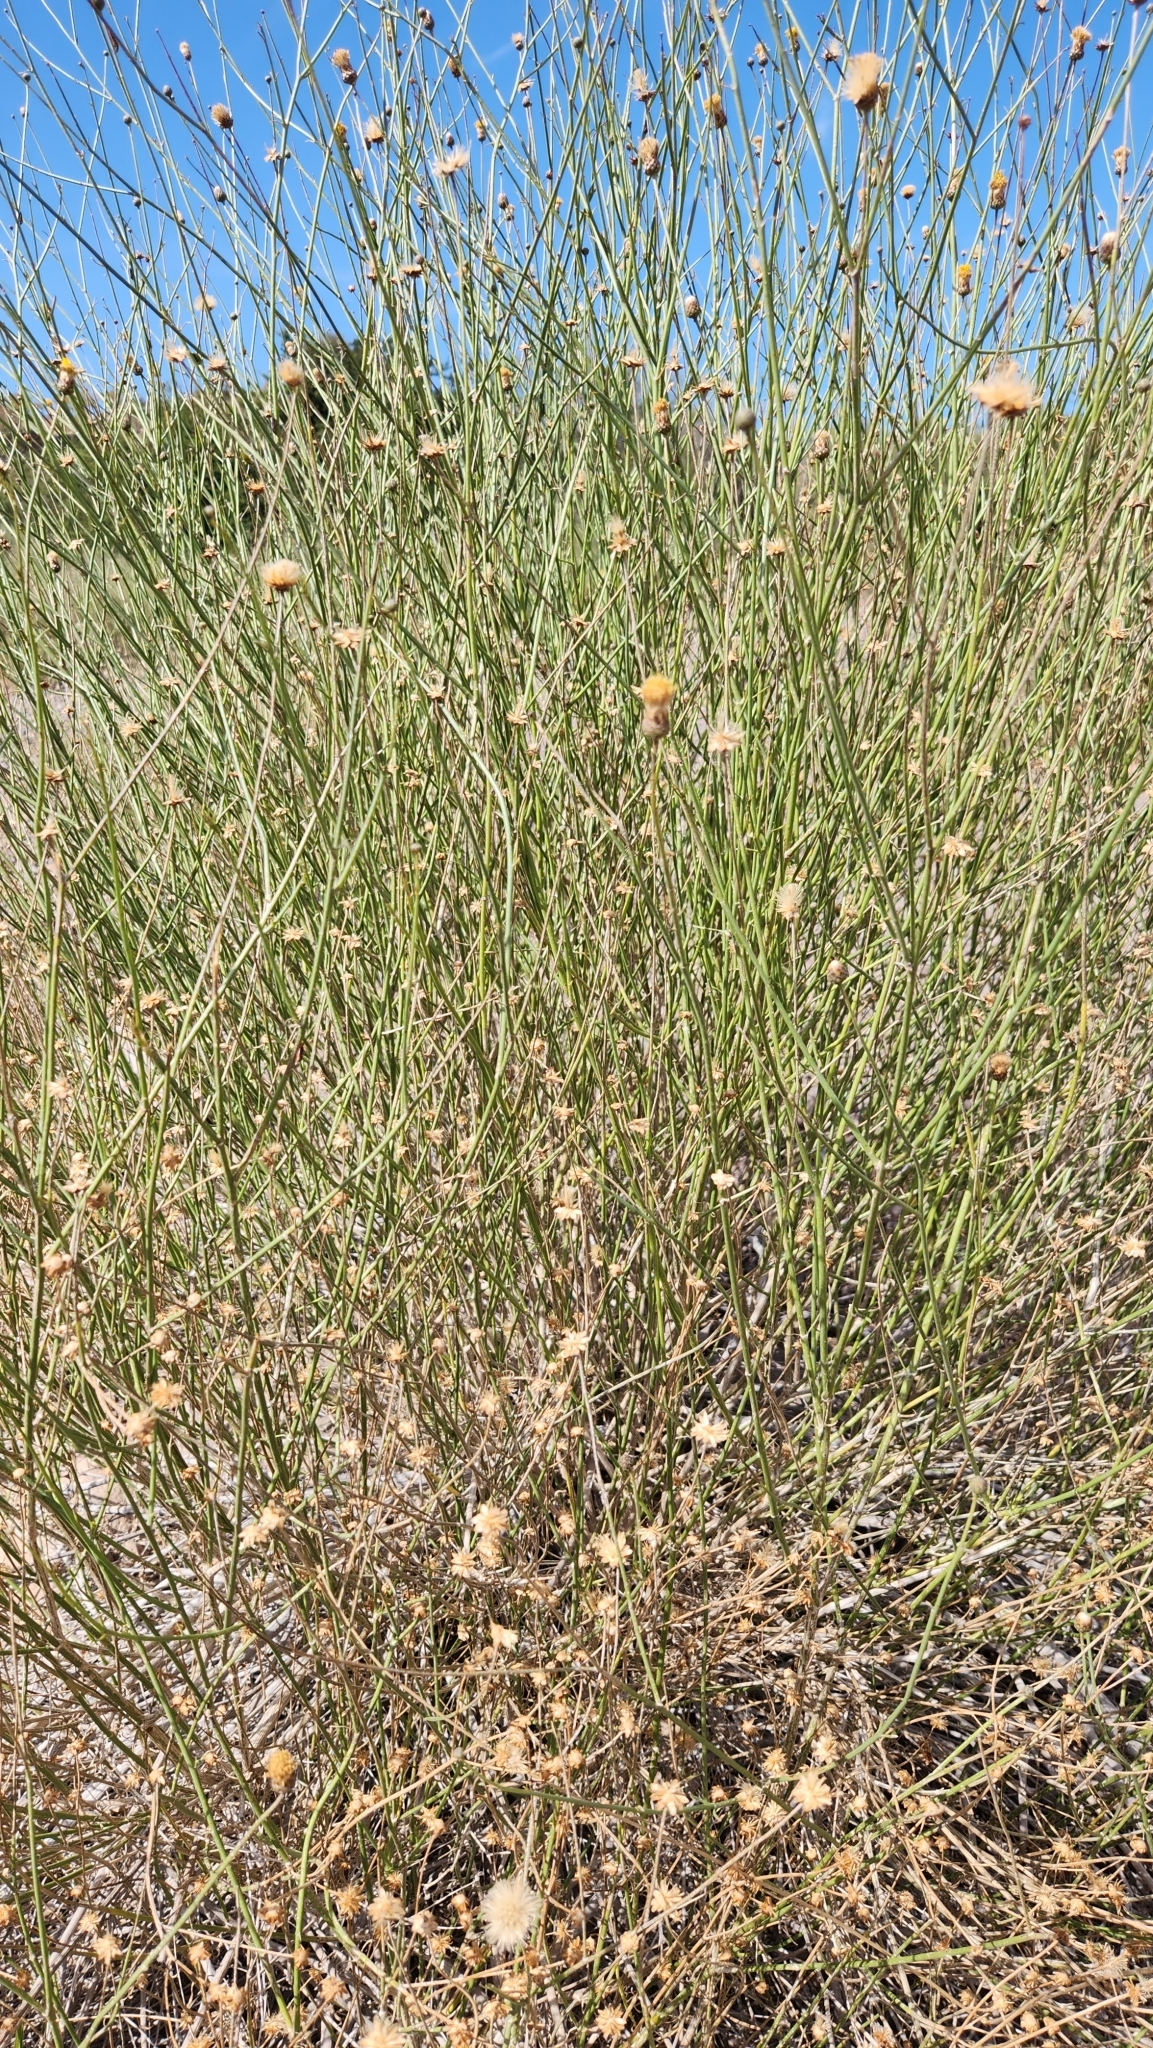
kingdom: Plantae
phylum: Tracheophyta
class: Magnoliopsida
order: Asterales
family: Asteraceae
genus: Bebbia
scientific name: Bebbia juncea
